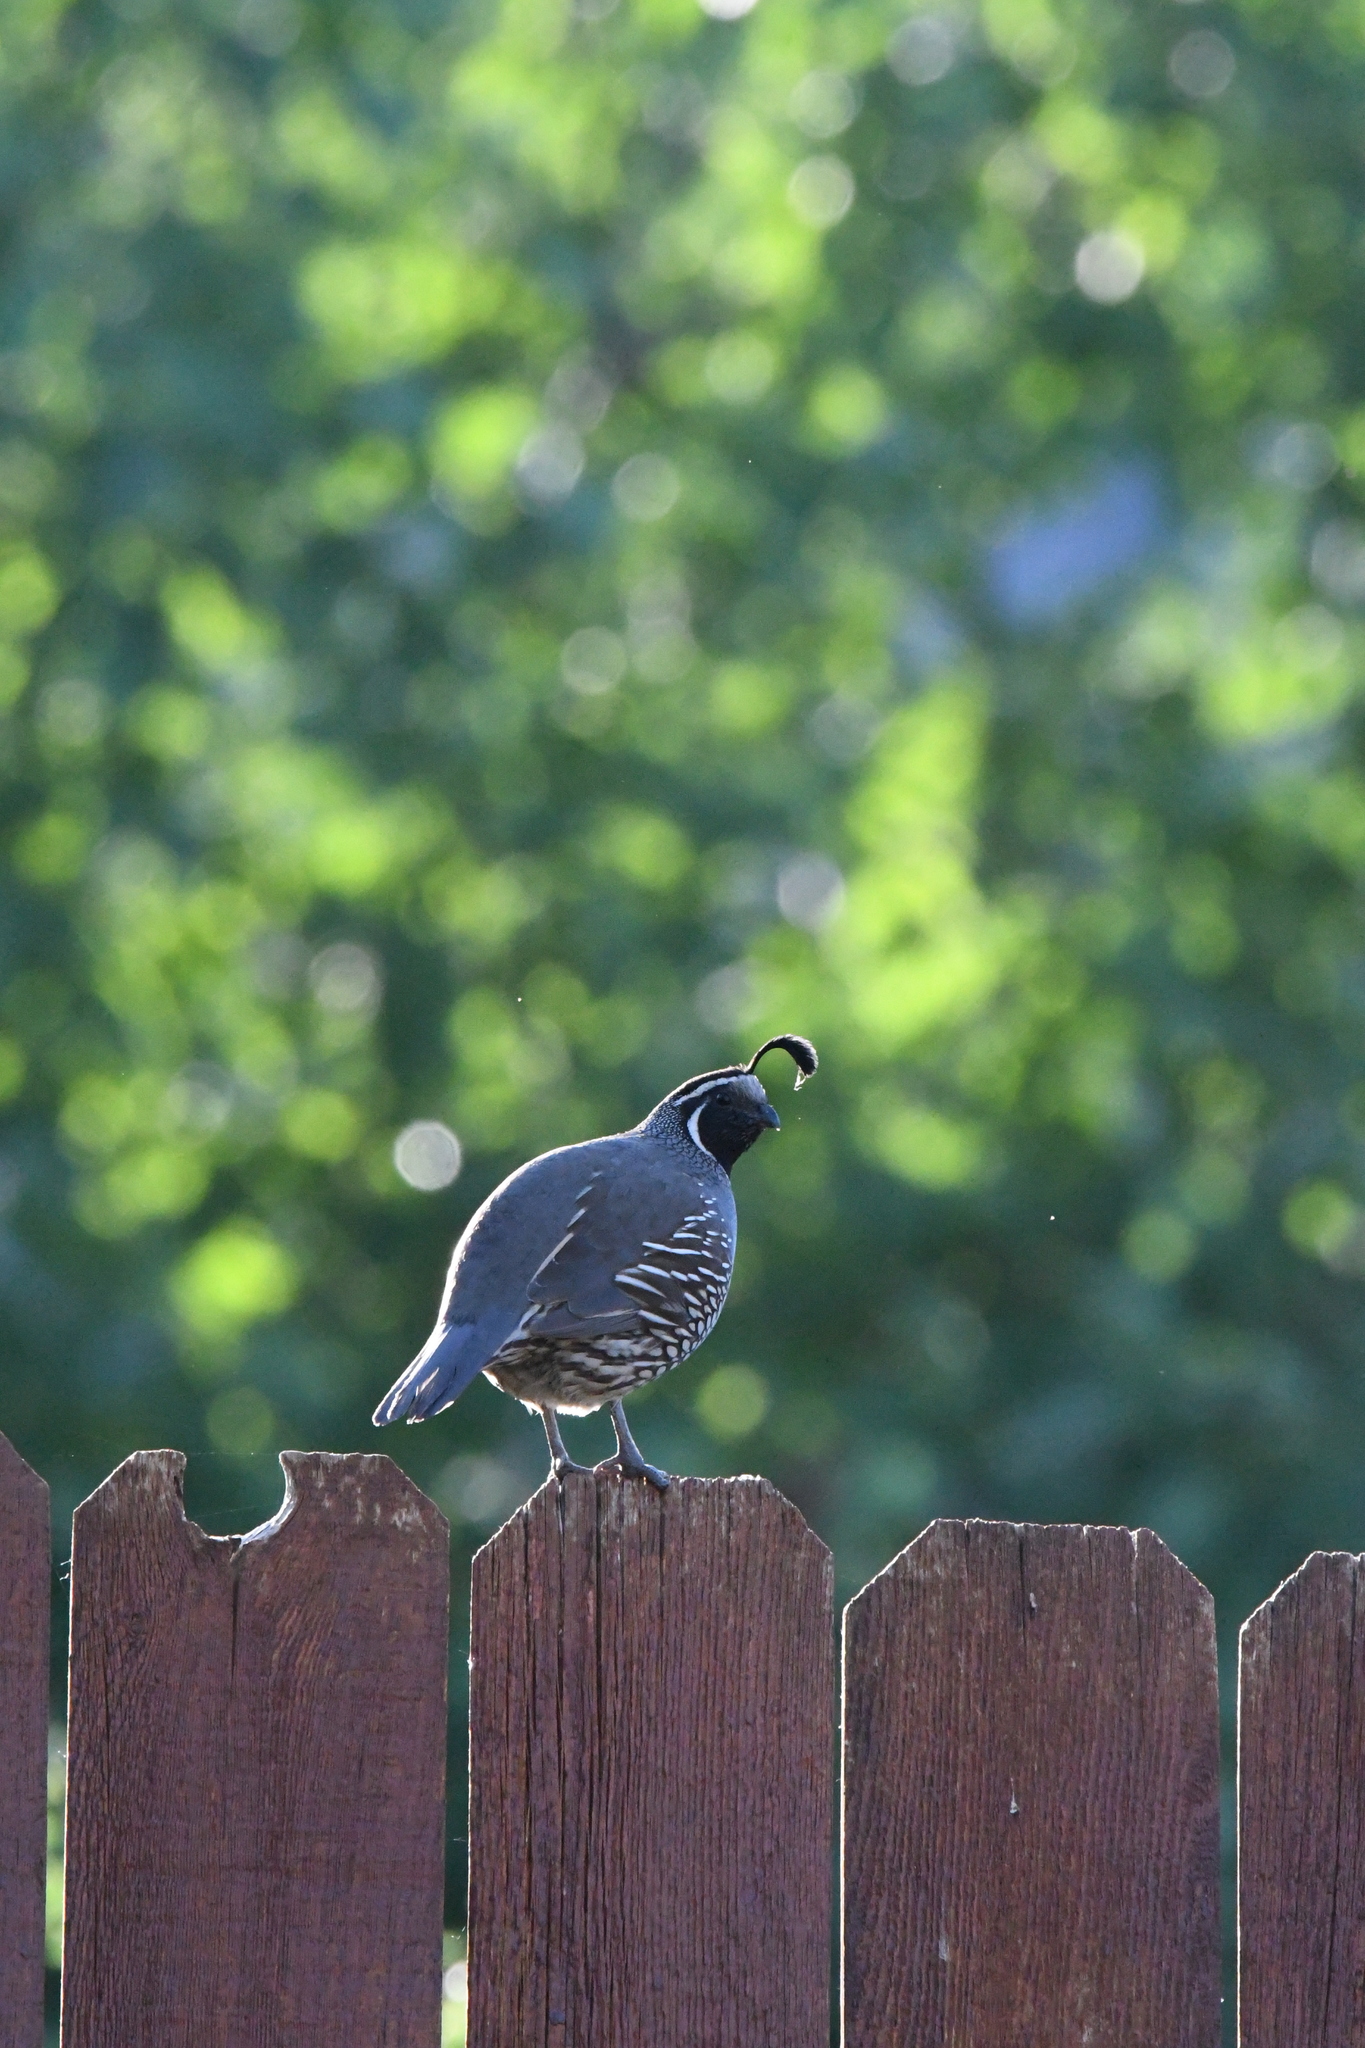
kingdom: Animalia
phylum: Chordata
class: Aves
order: Galliformes
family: Odontophoridae
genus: Callipepla
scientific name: Callipepla californica
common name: California quail
